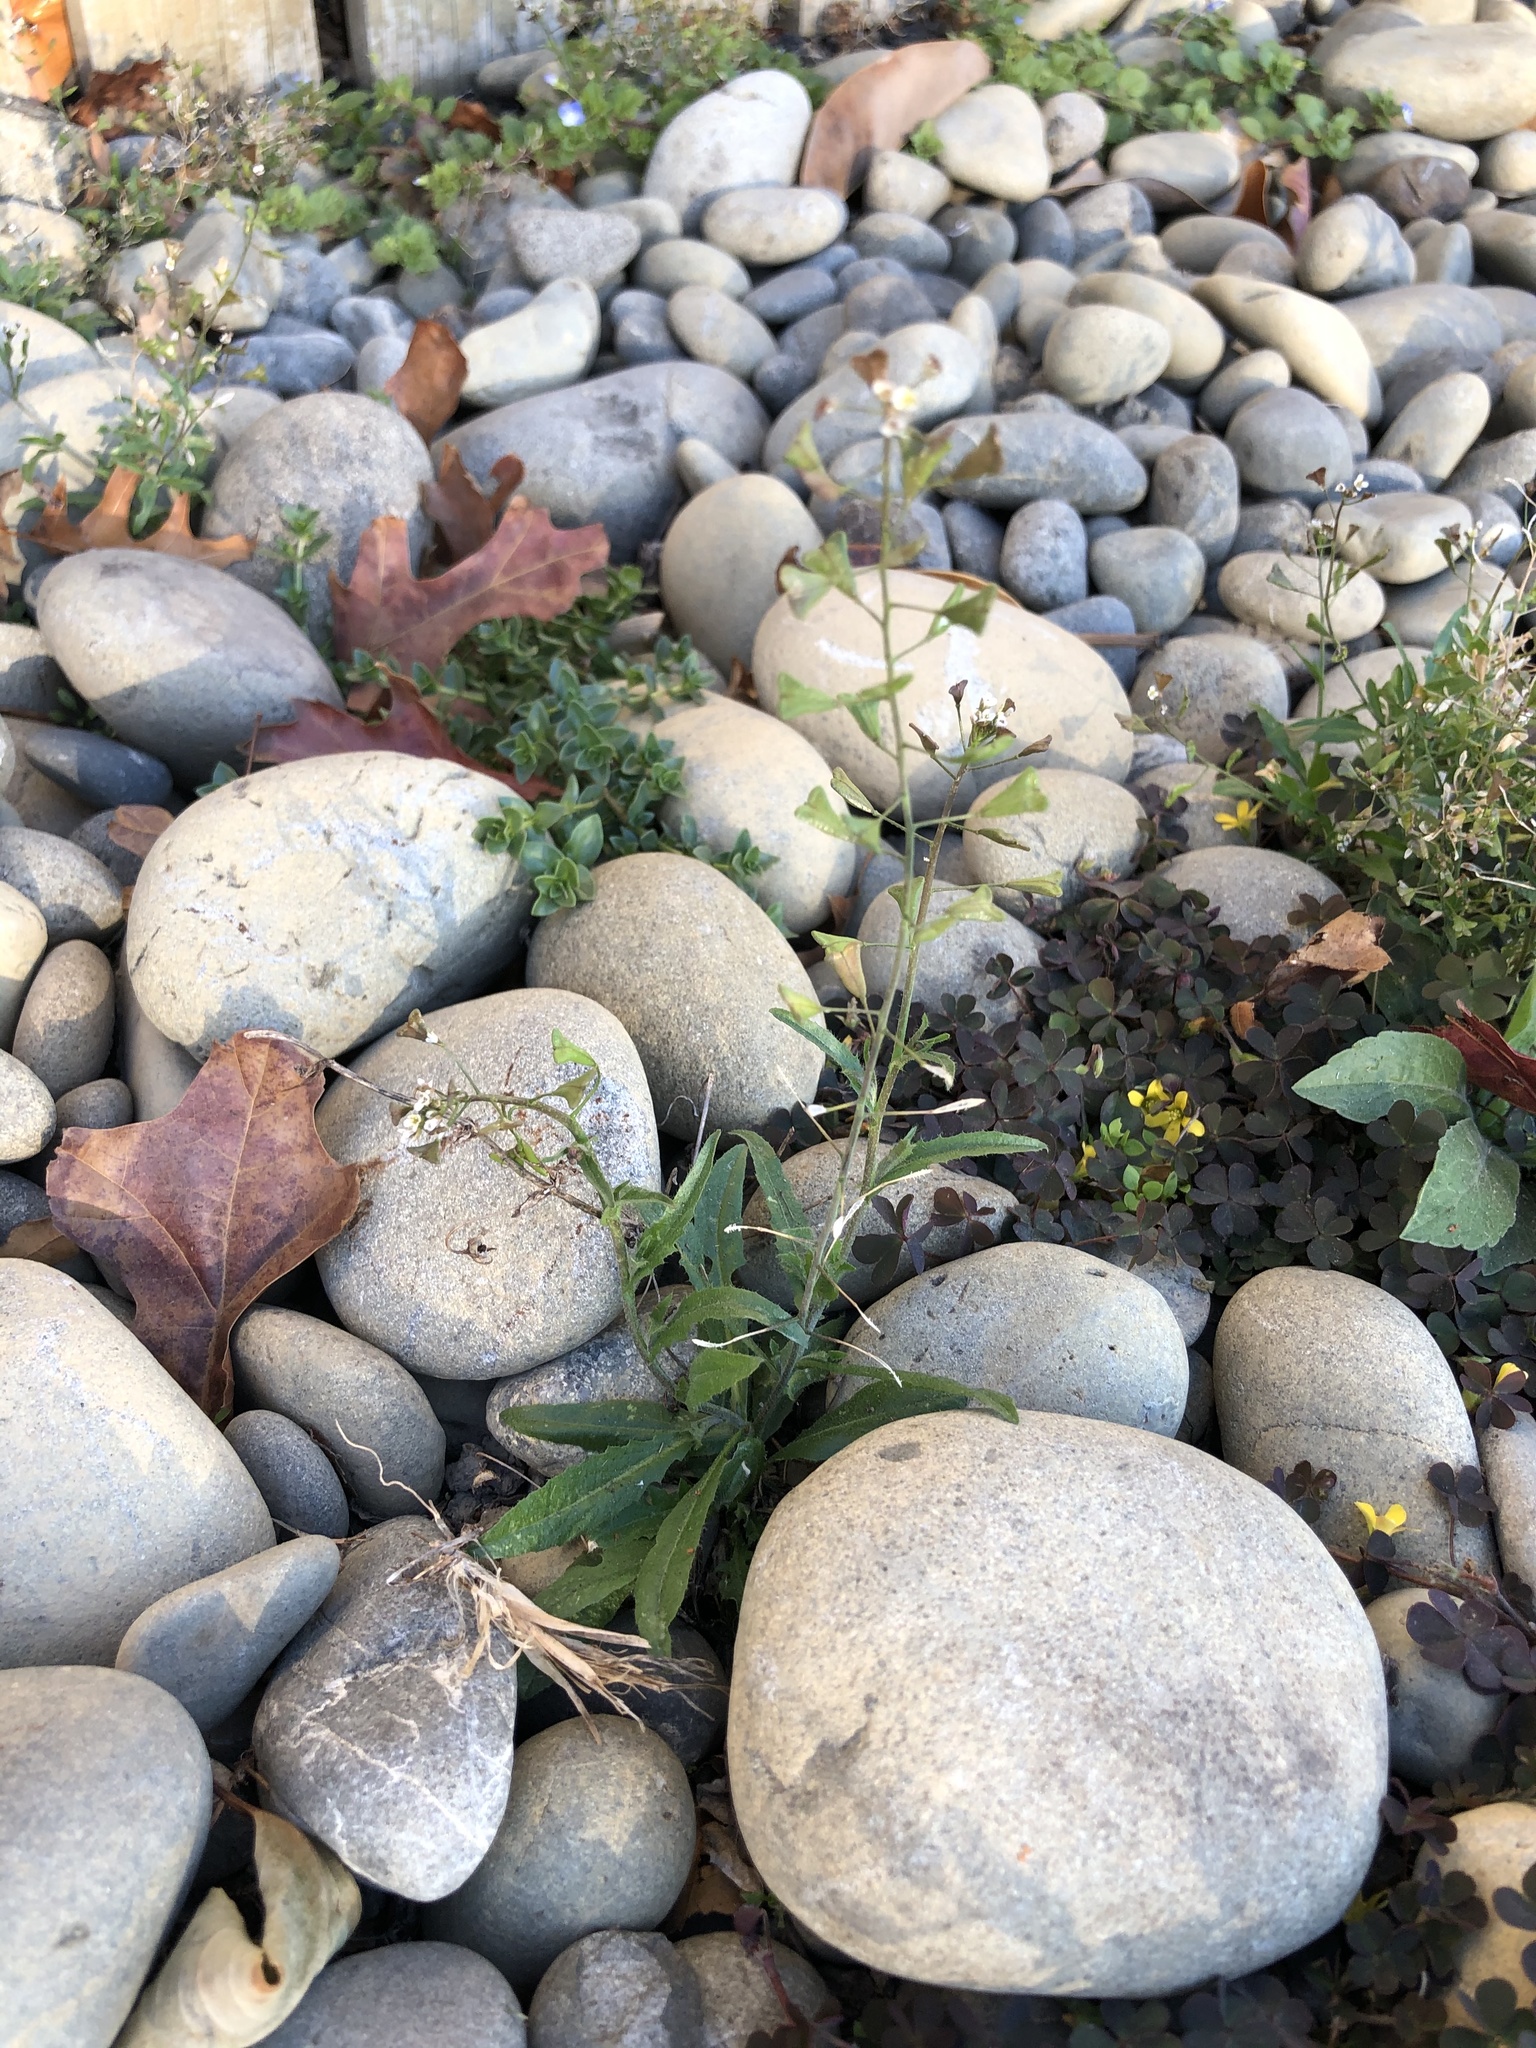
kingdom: Plantae
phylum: Tracheophyta
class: Magnoliopsida
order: Brassicales
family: Brassicaceae
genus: Capsella
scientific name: Capsella bursa-pastoris
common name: Shepherd's purse
